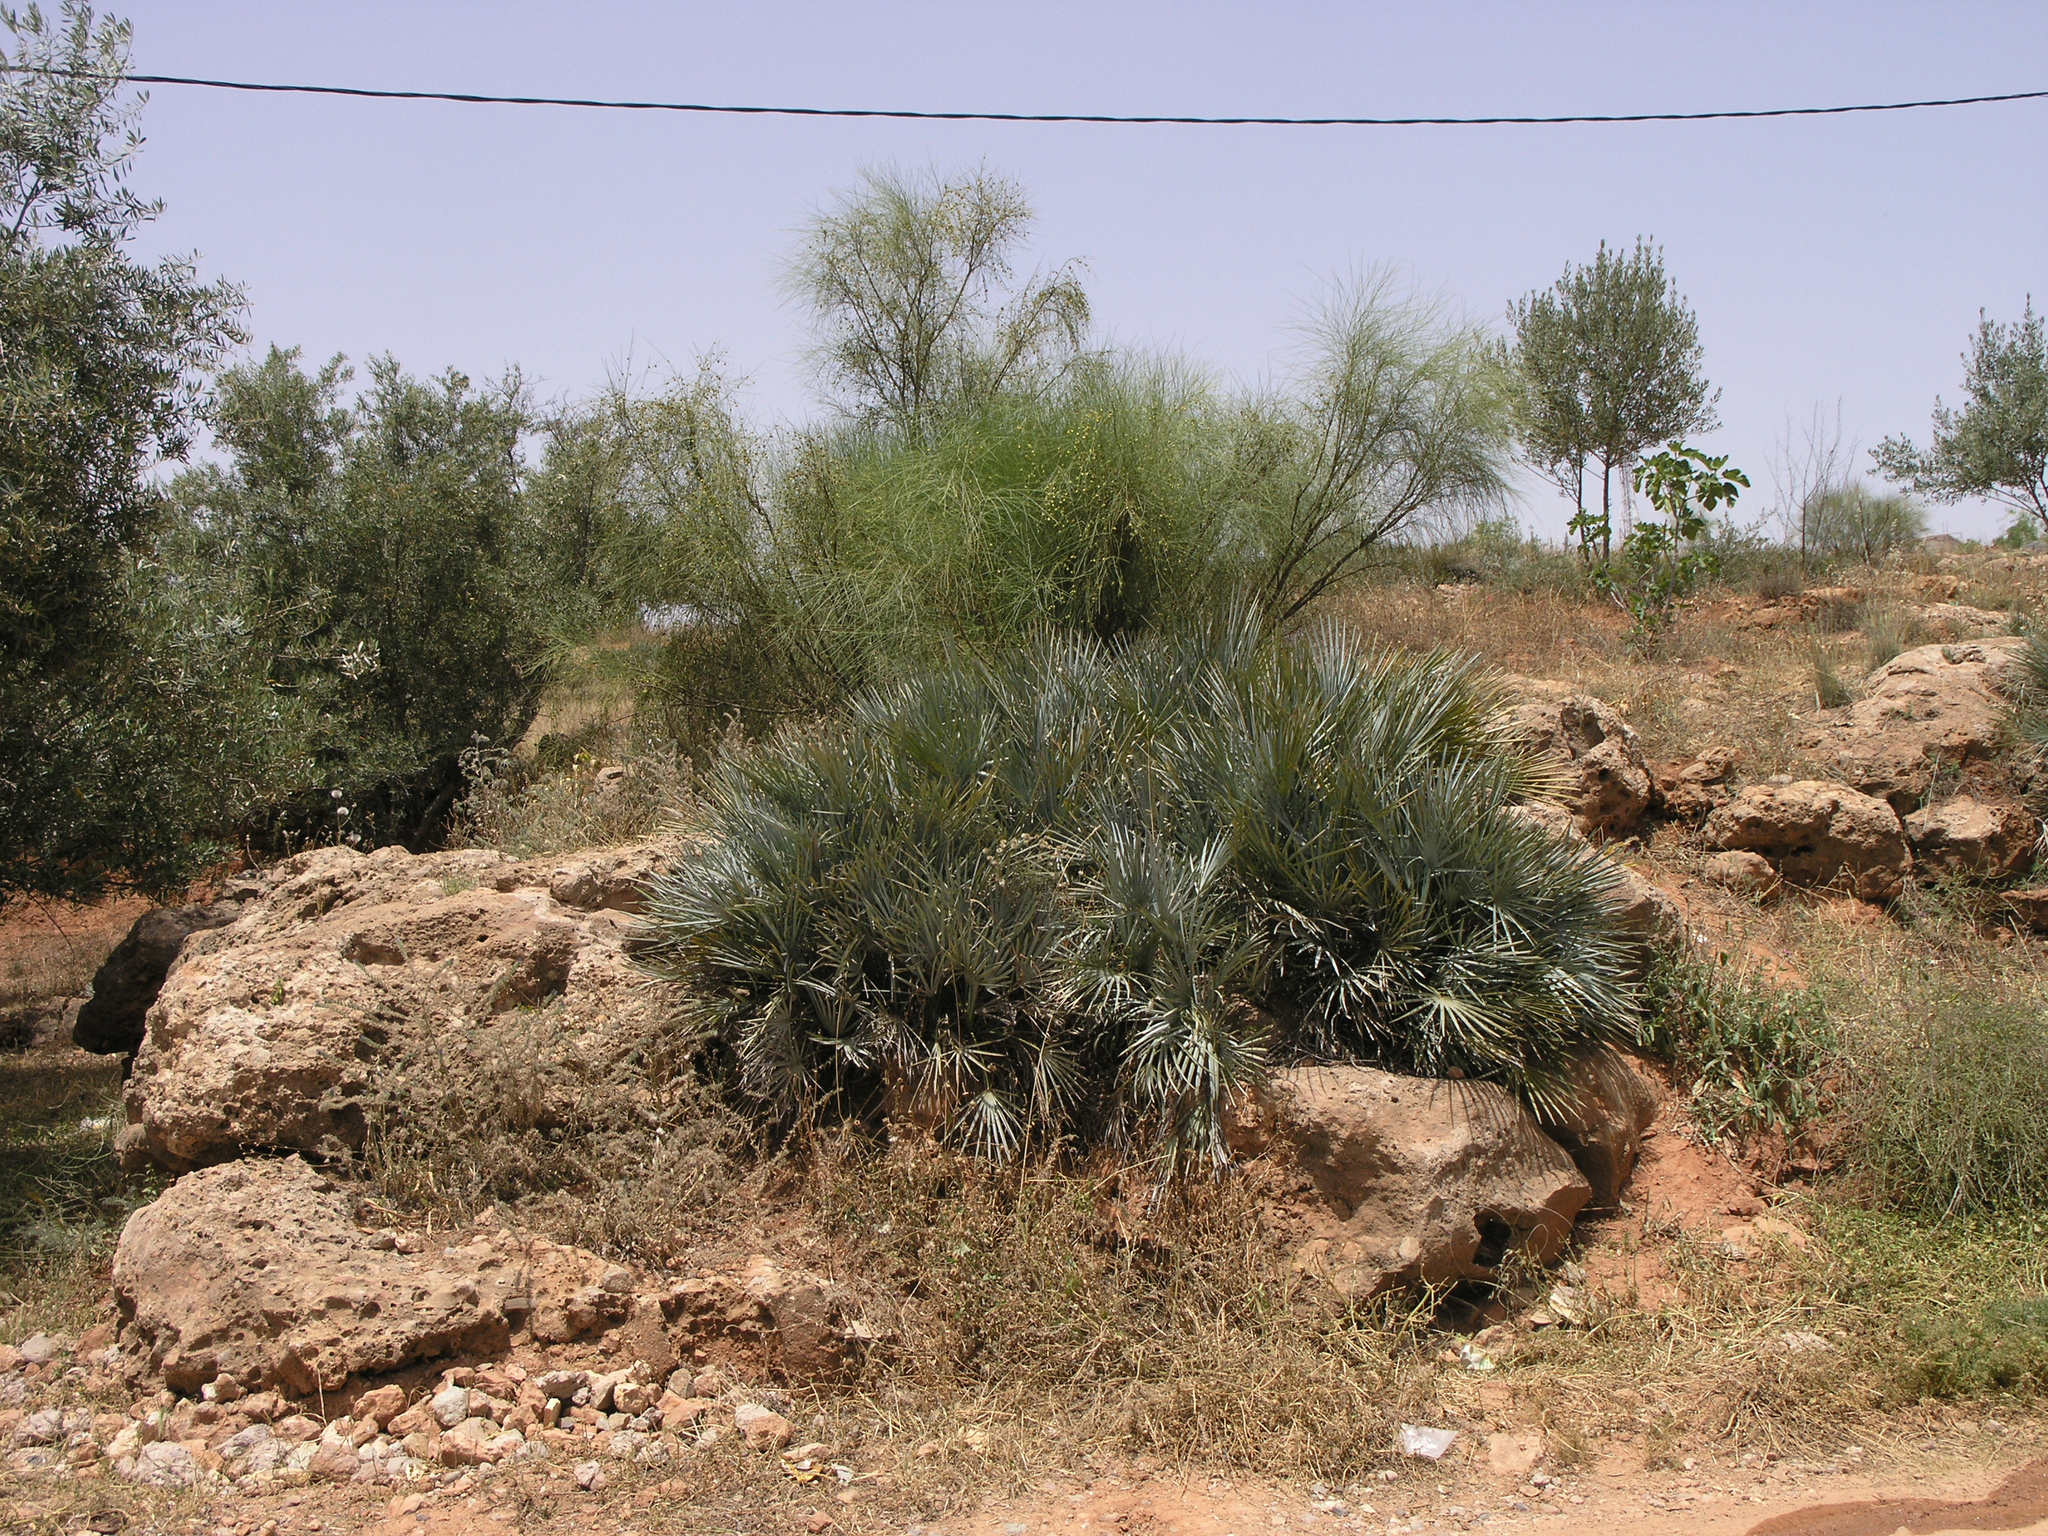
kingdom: Plantae
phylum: Tracheophyta
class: Liliopsida
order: Arecales
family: Arecaceae
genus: Chamaerops
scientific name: Chamaerops humilis
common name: Dwarf fan palm
